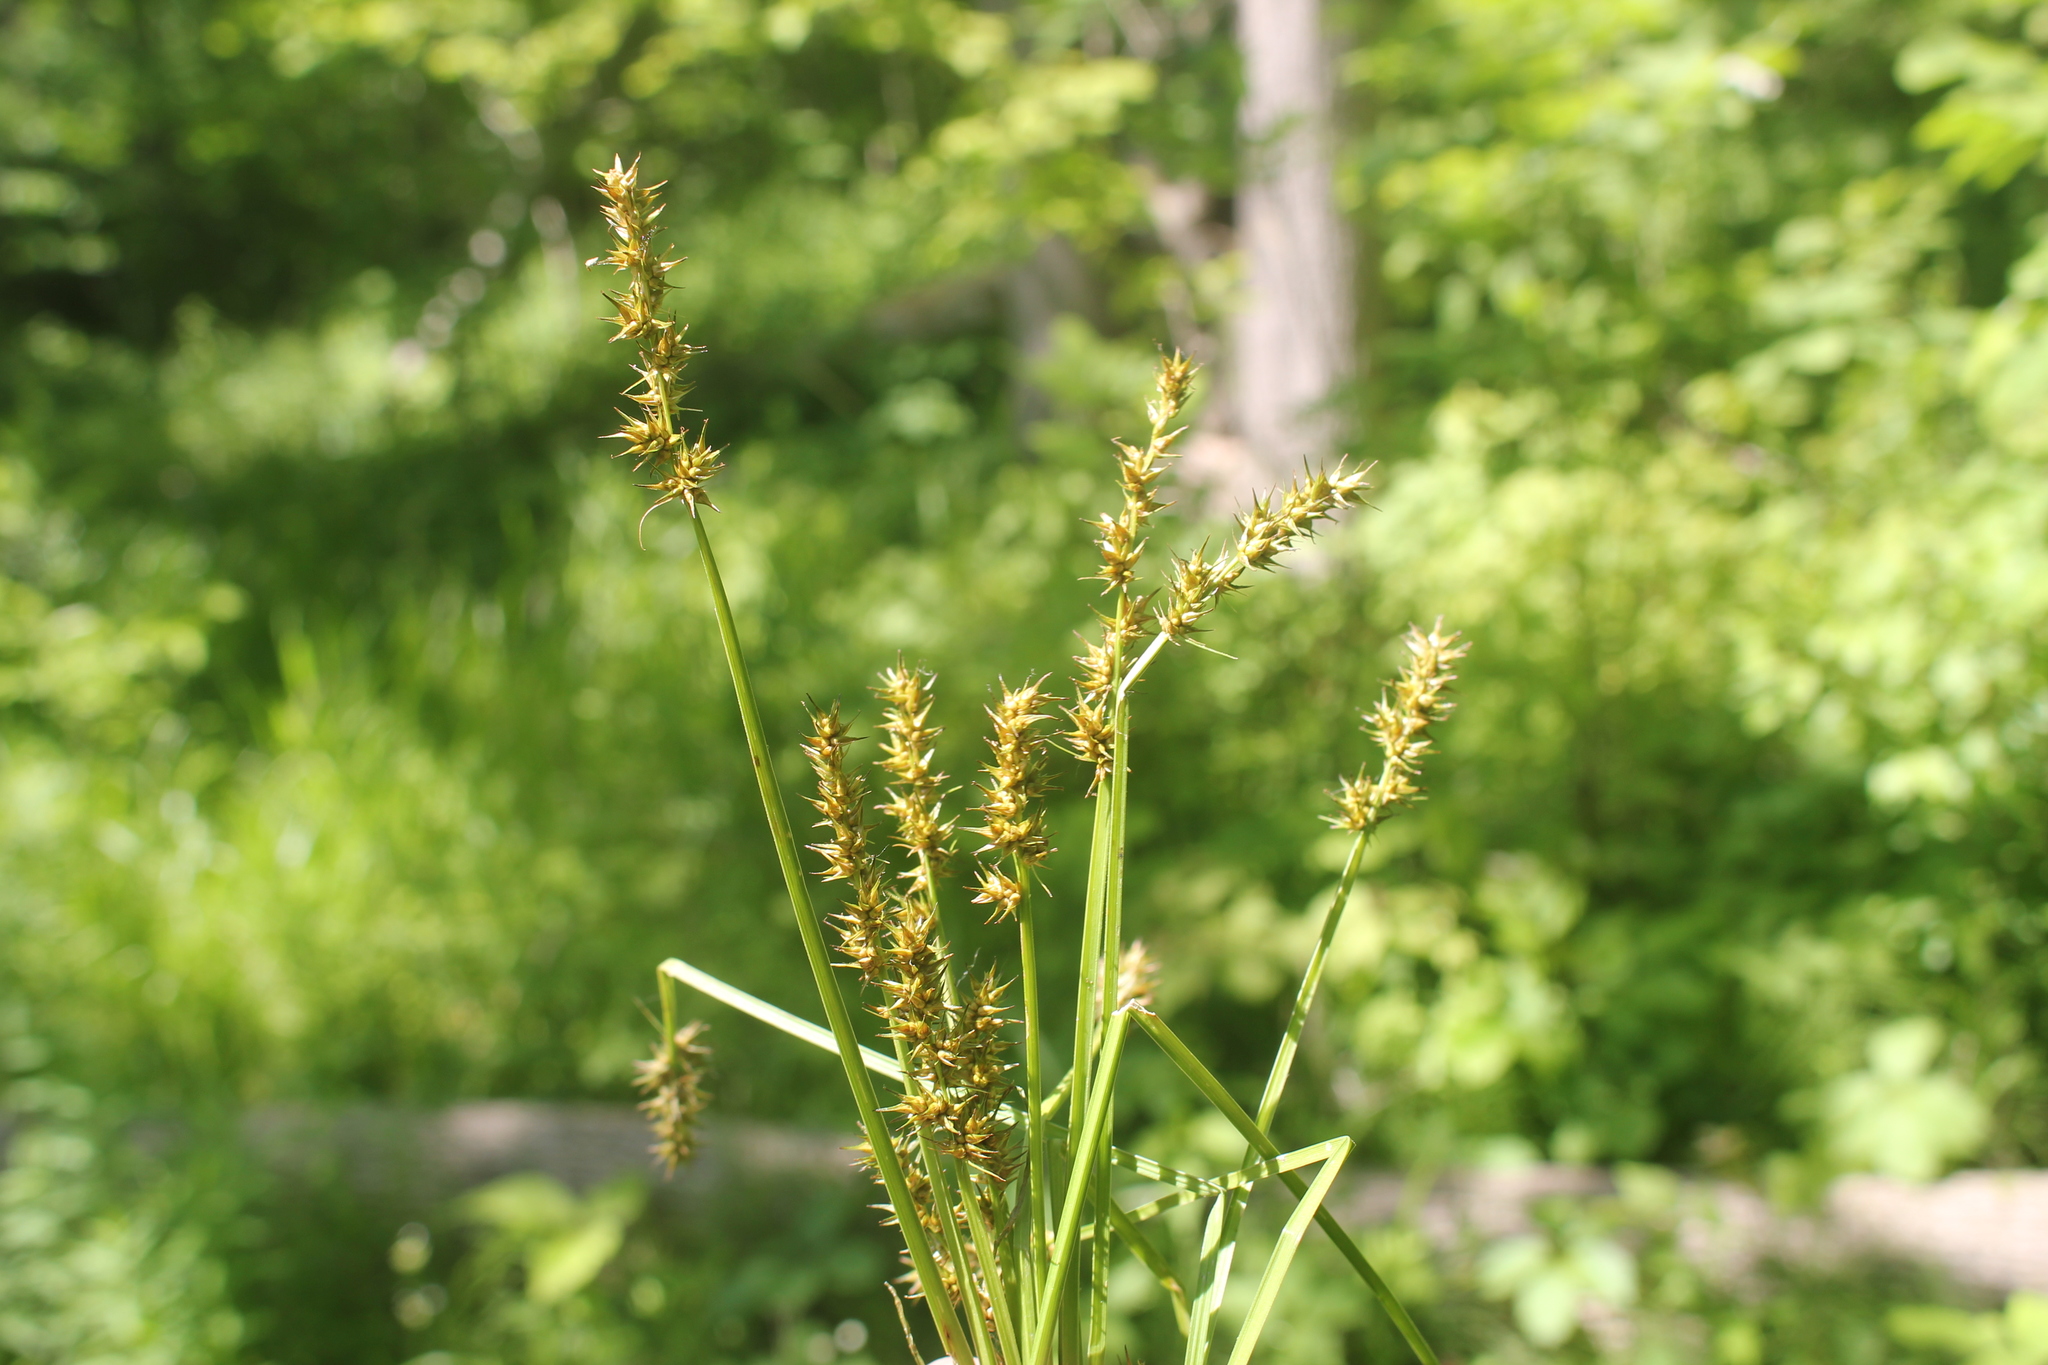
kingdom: Plantae
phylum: Tracheophyta
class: Liliopsida
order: Poales
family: Cyperaceae
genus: Carex
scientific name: Carex laevivaginata
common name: Smooth-sheathed fox sedge
